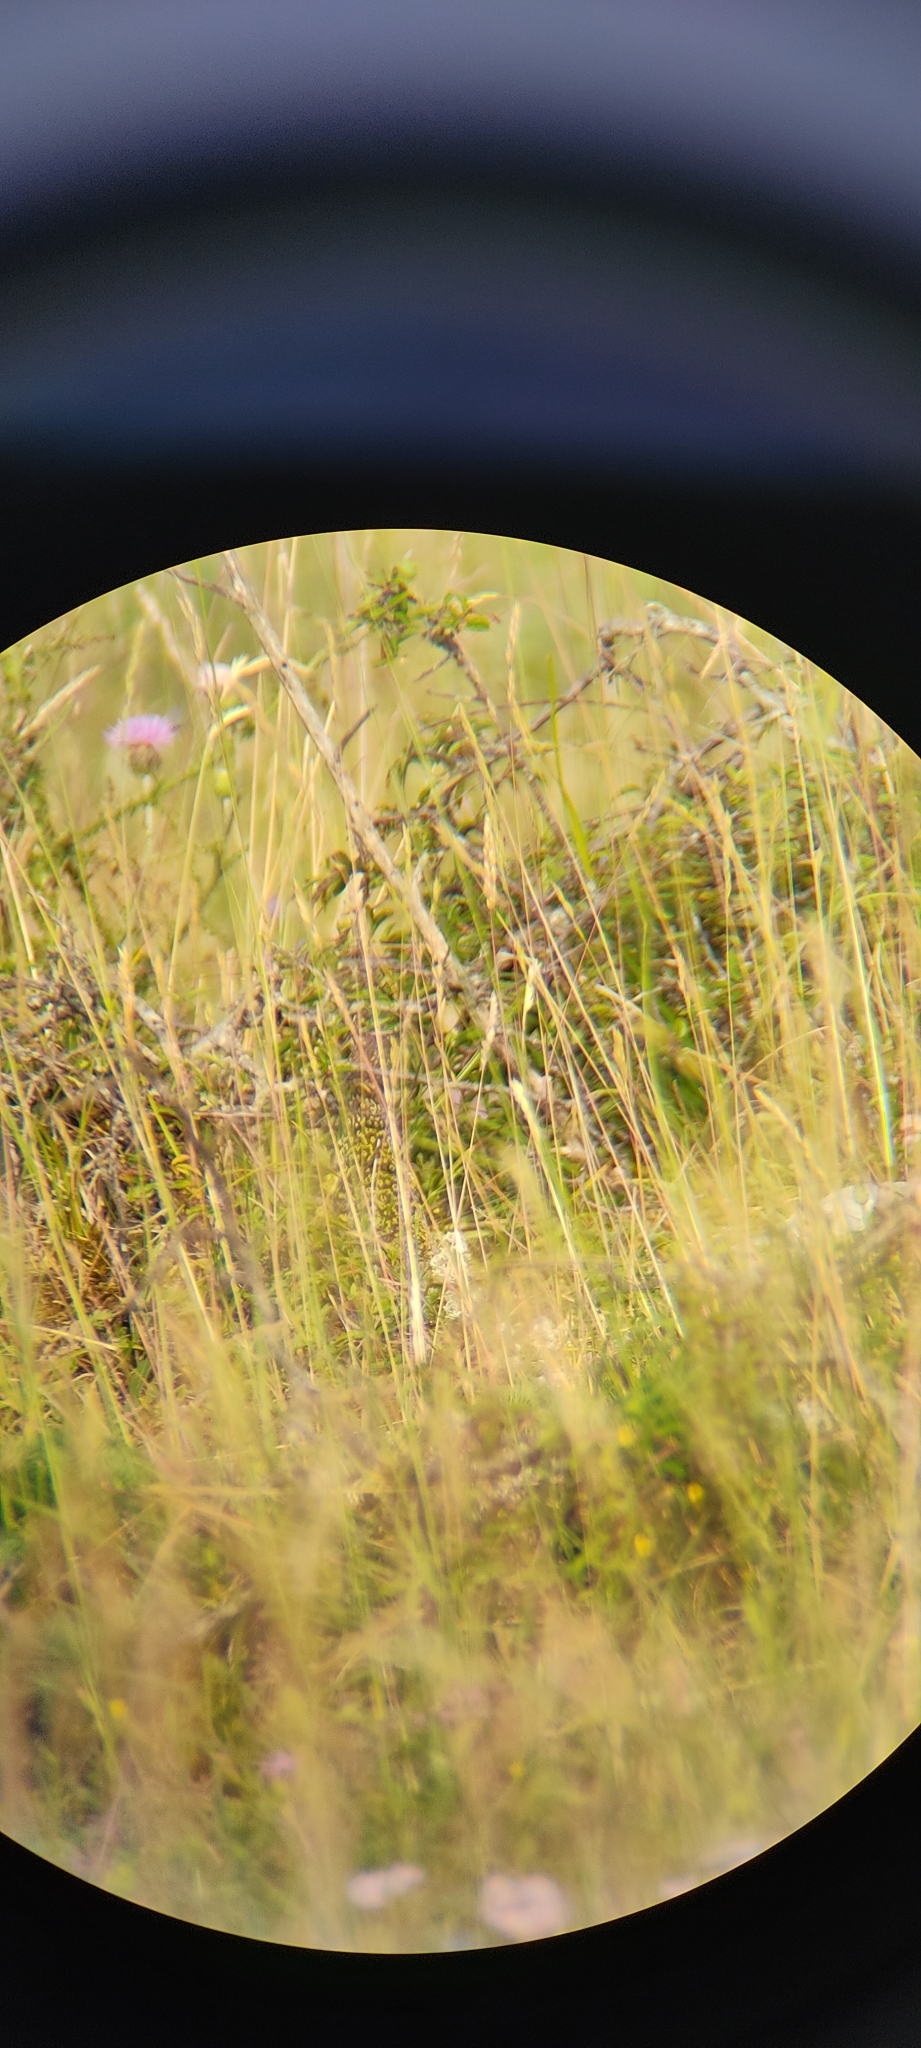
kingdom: Animalia
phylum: Chordata
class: Squamata
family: Lacertidae
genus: Timon
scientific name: Timon lepidus
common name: Ocellated lizard
